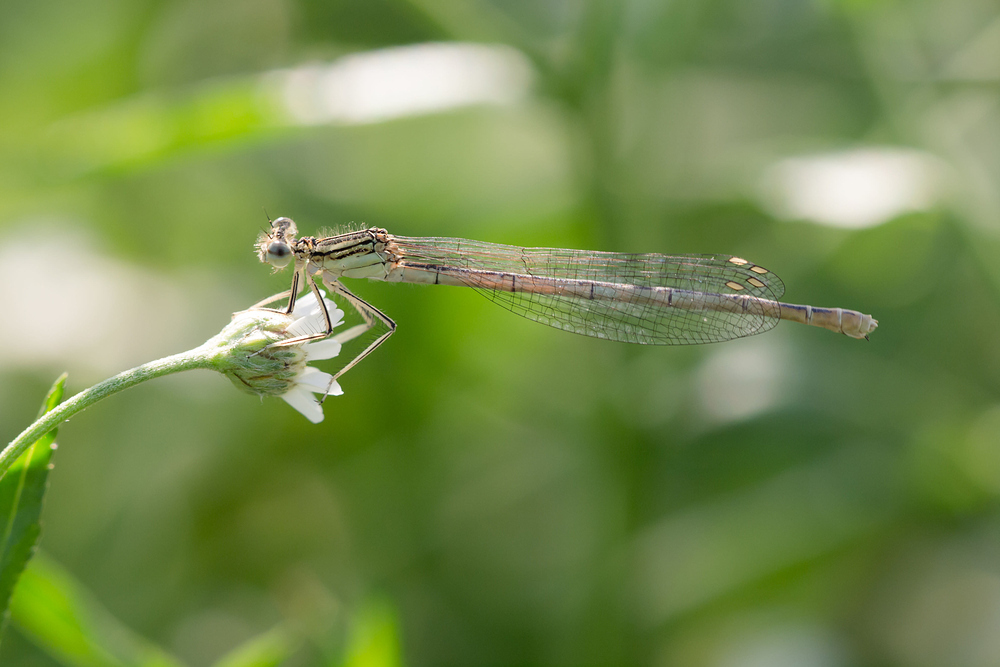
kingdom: Animalia
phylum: Arthropoda
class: Insecta
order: Odonata
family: Platycnemididae
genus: Platycnemis
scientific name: Platycnemis pennipes
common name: White-legged damselfly
